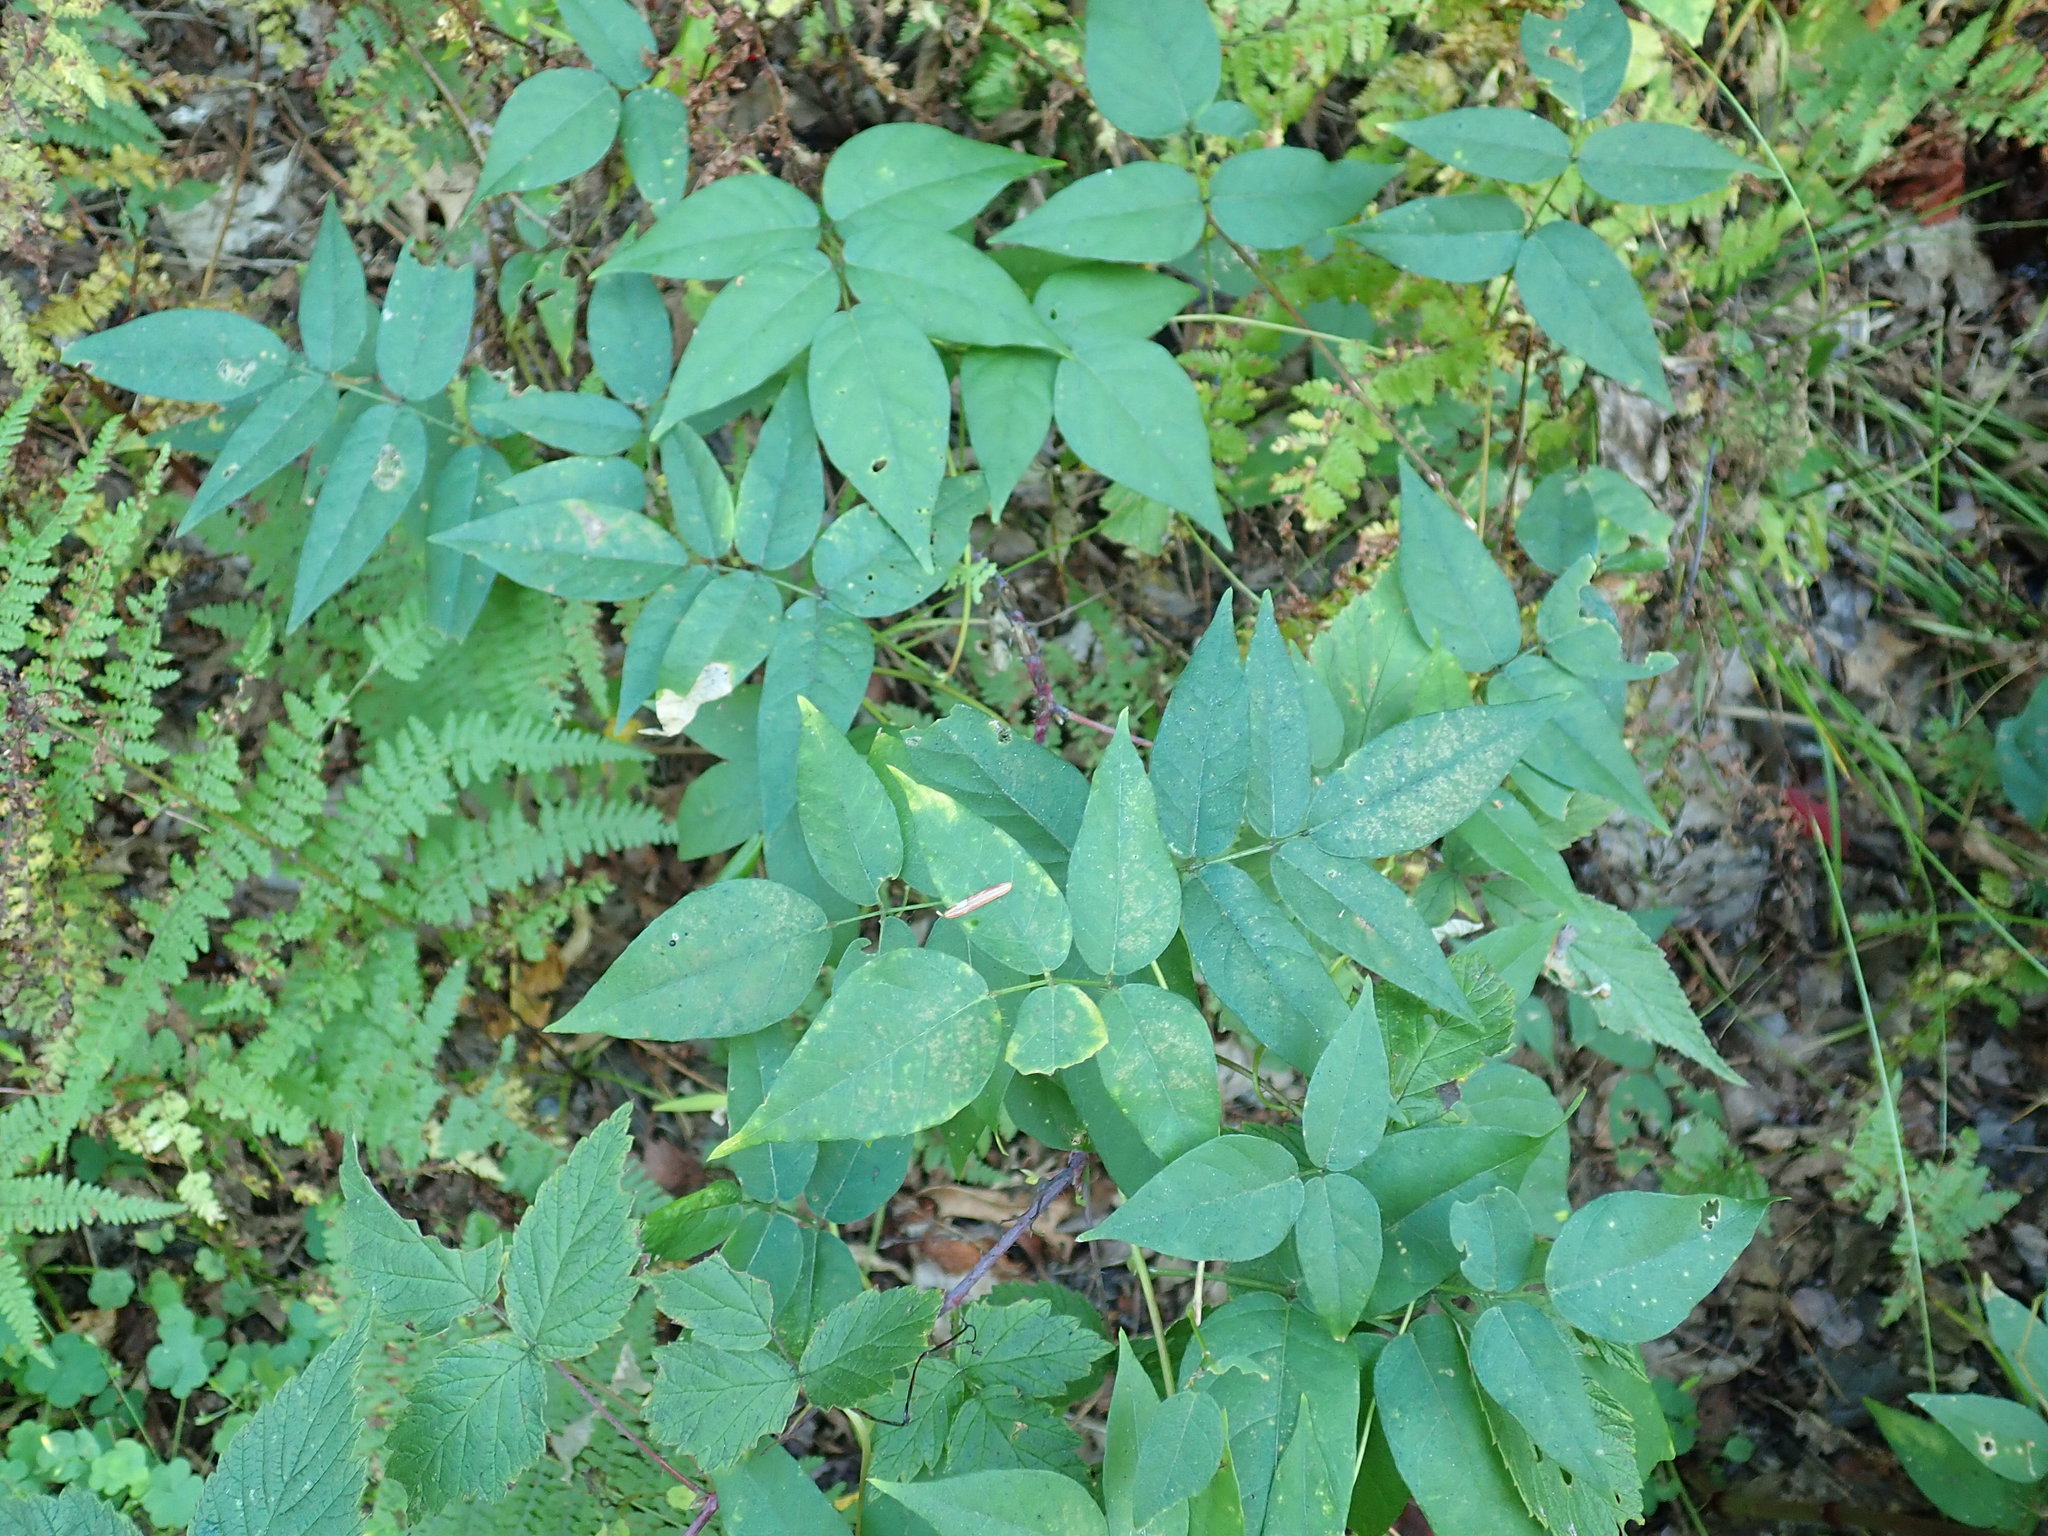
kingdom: Plantae
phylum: Tracheophyta
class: Magnoliopsida
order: Fabales
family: Fabaceae
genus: Apios
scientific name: Apios americana
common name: American potato-bean
